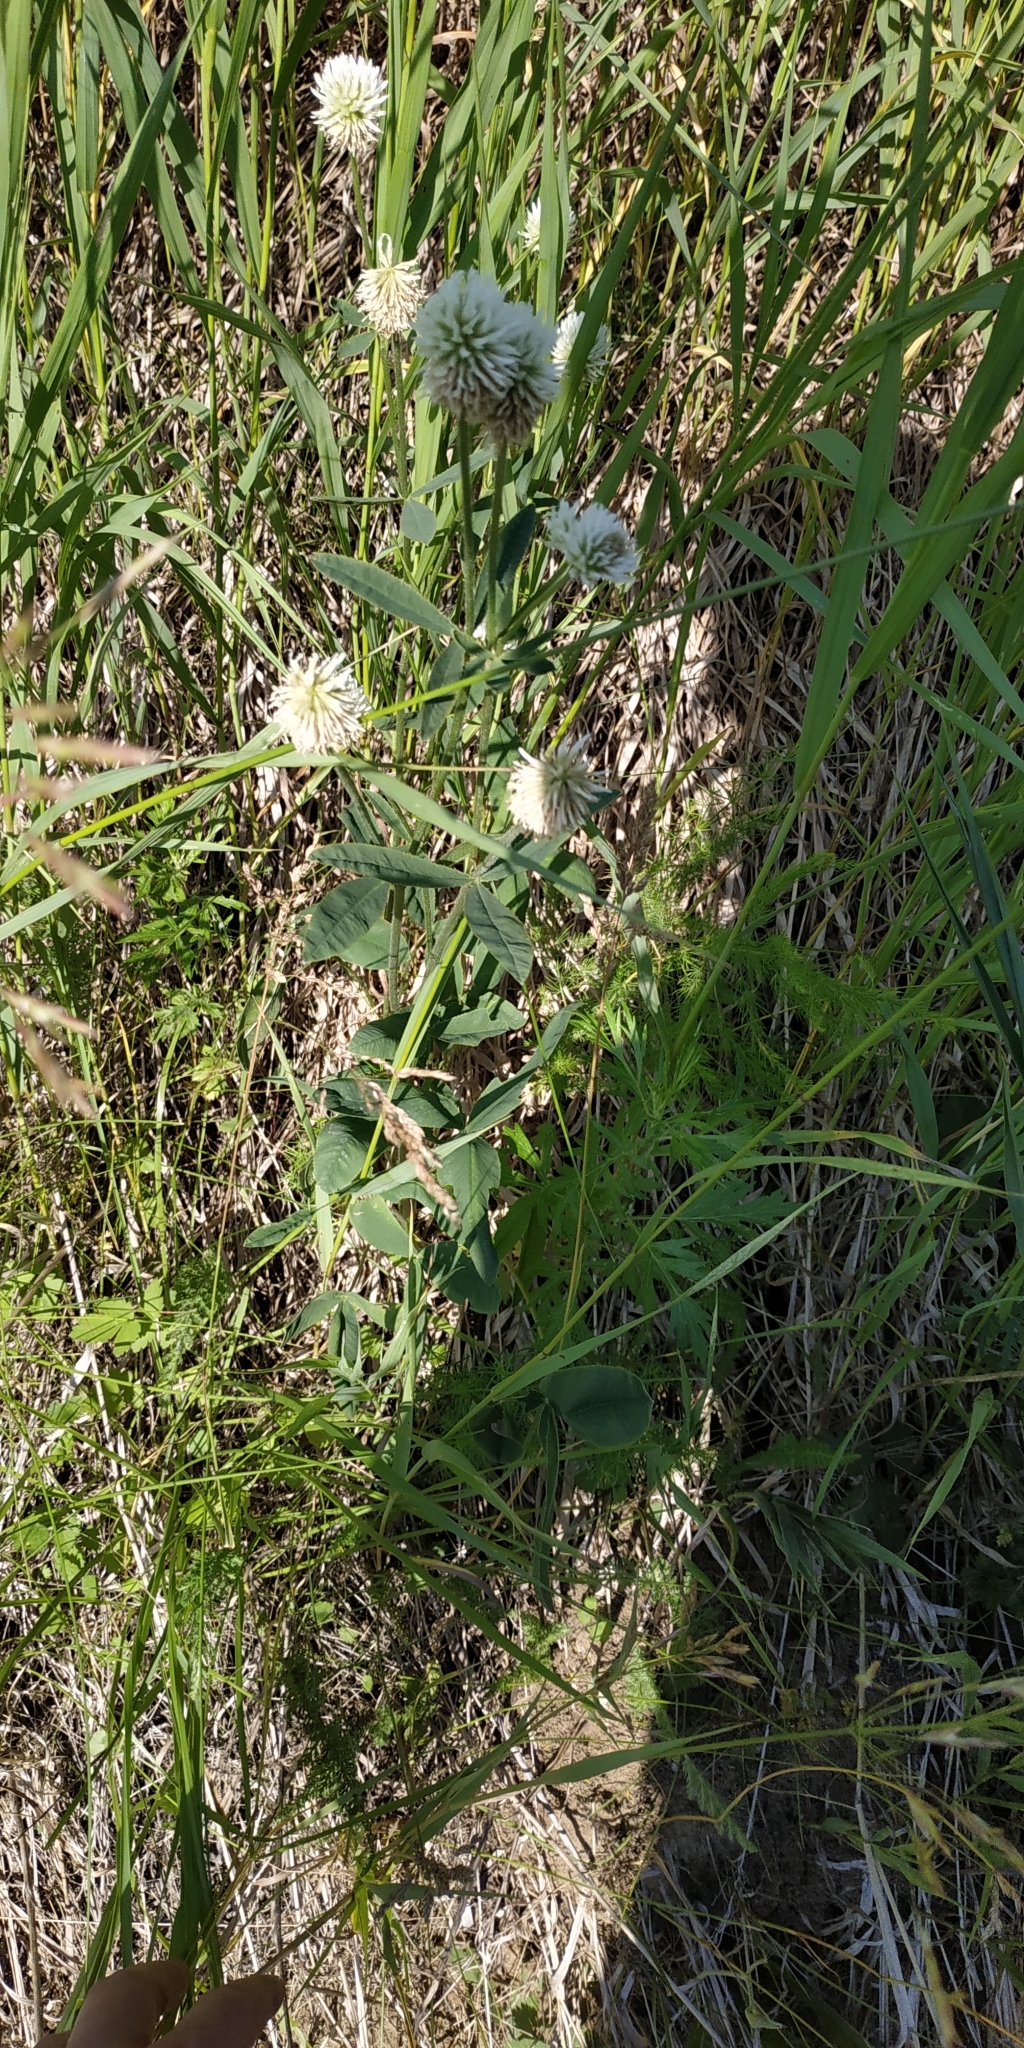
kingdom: Plantae
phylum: Tracheophyta
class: Magnoliopsida
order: Fabales
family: Fabaceae
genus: Trifolium
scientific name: Trifolium montanum
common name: Mountain clover
